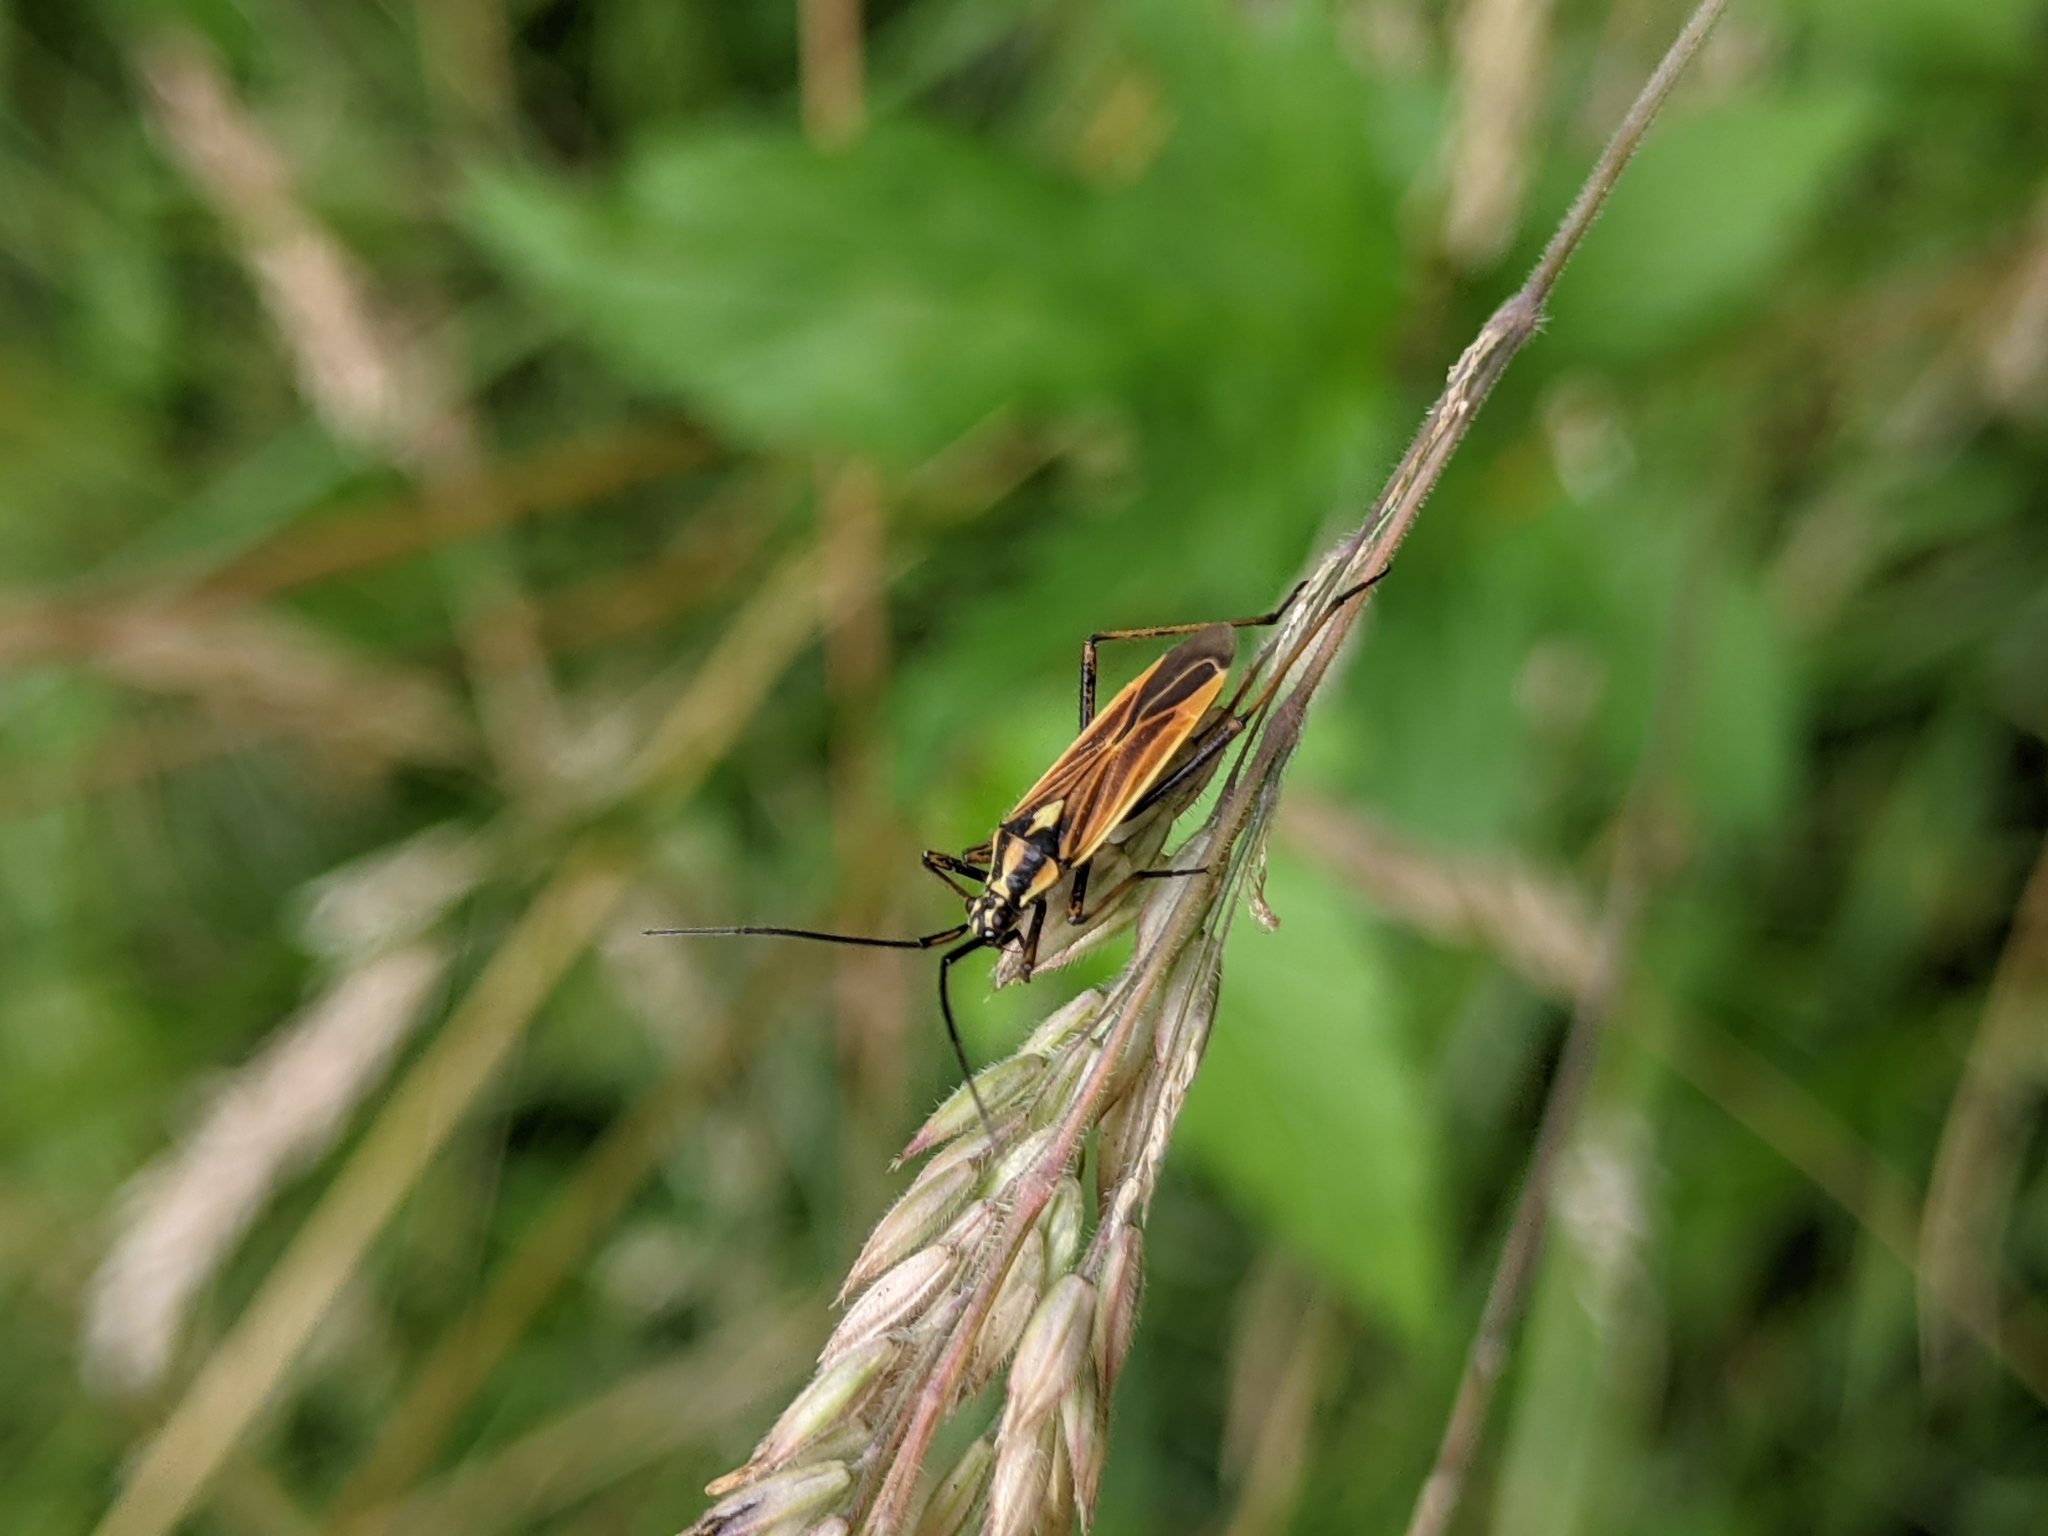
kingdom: Animalia
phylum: Arthropoda
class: Insecta
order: Hemiptera
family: Miridae
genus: Leptopterna
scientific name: Leptopterna dolabrata
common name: Meadow plant bug
